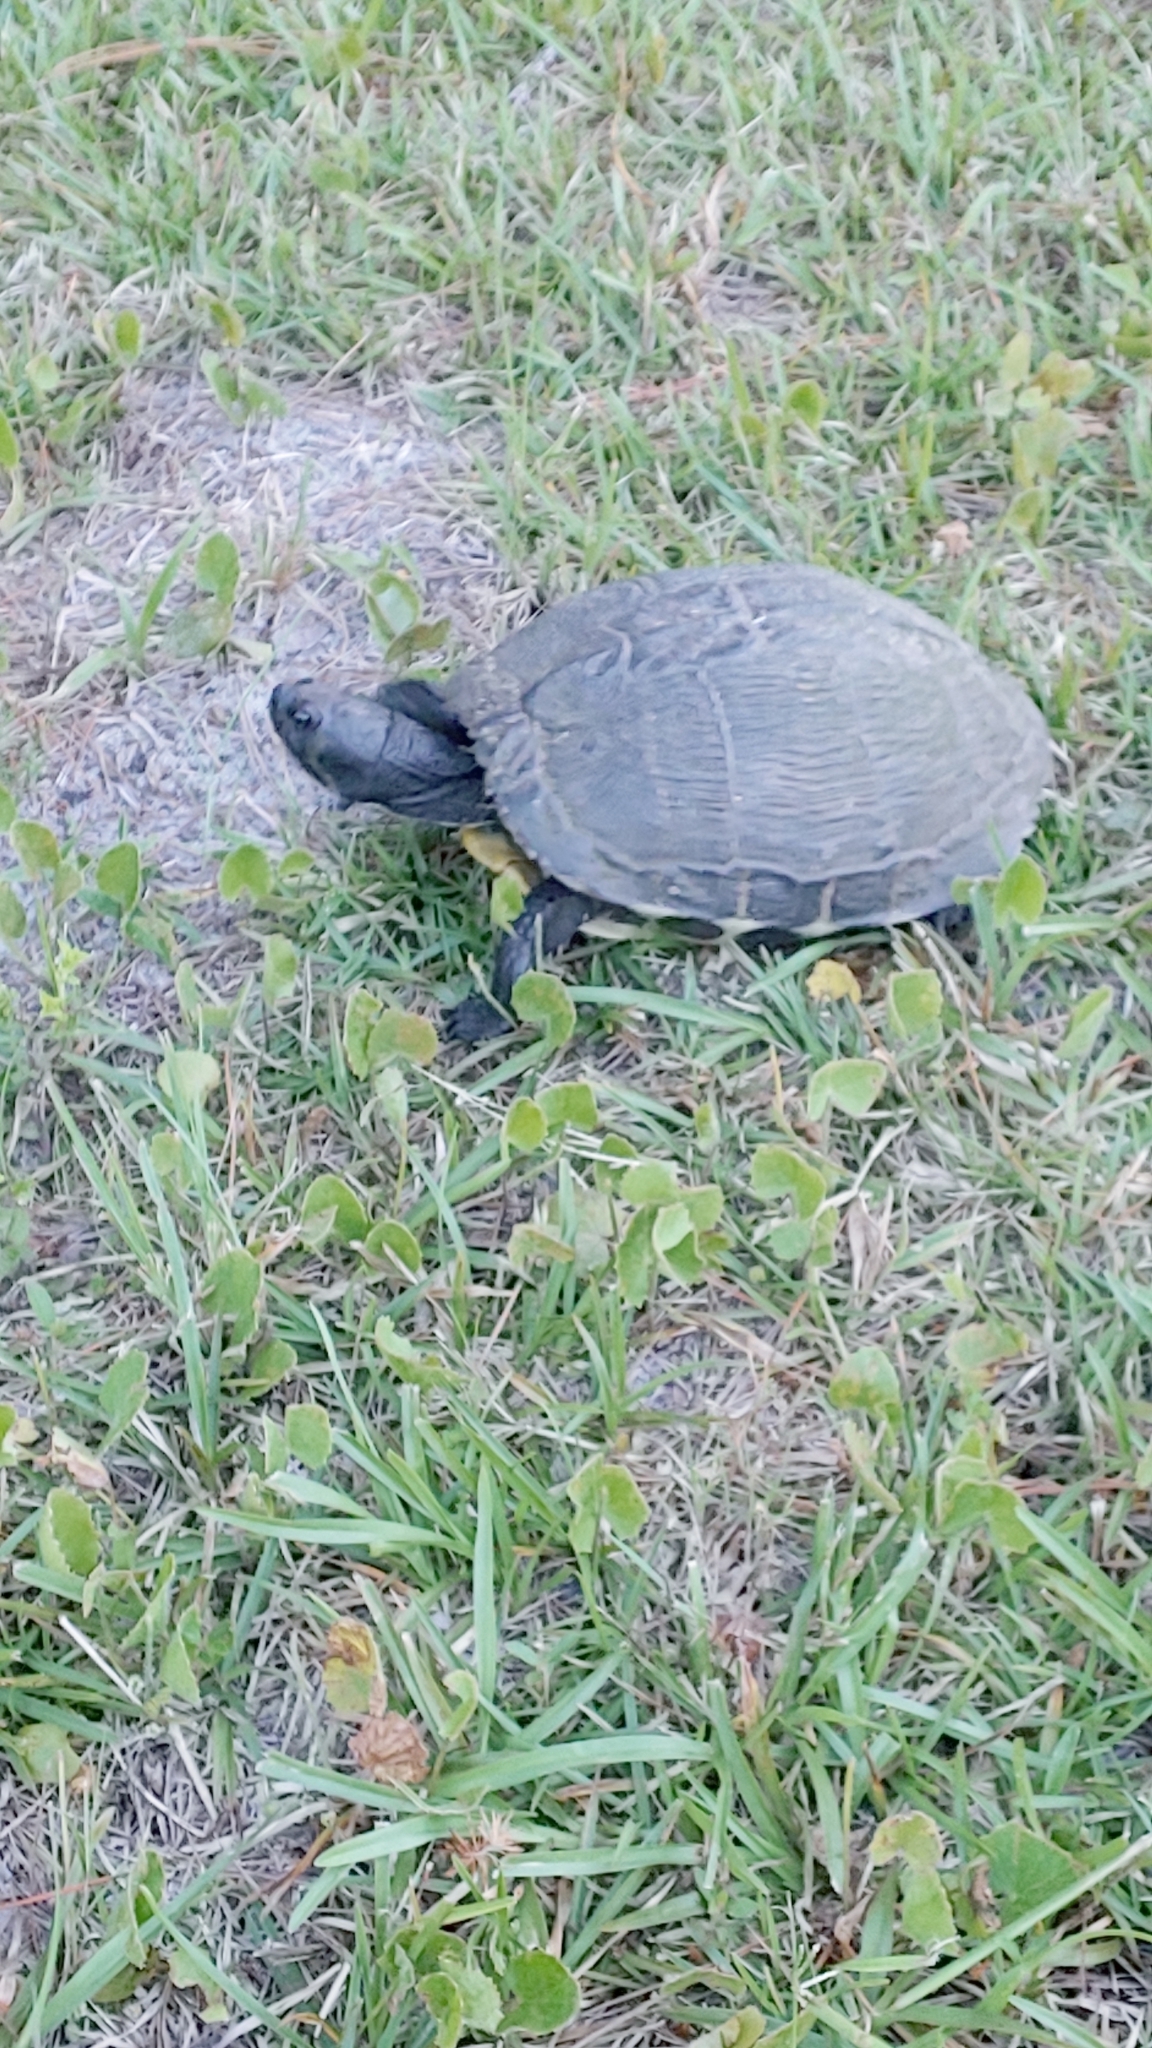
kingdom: Animalia
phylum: Chordata
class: Testudines
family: Emydidae
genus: Trachemys
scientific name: Trachemys scripta
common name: Slider
